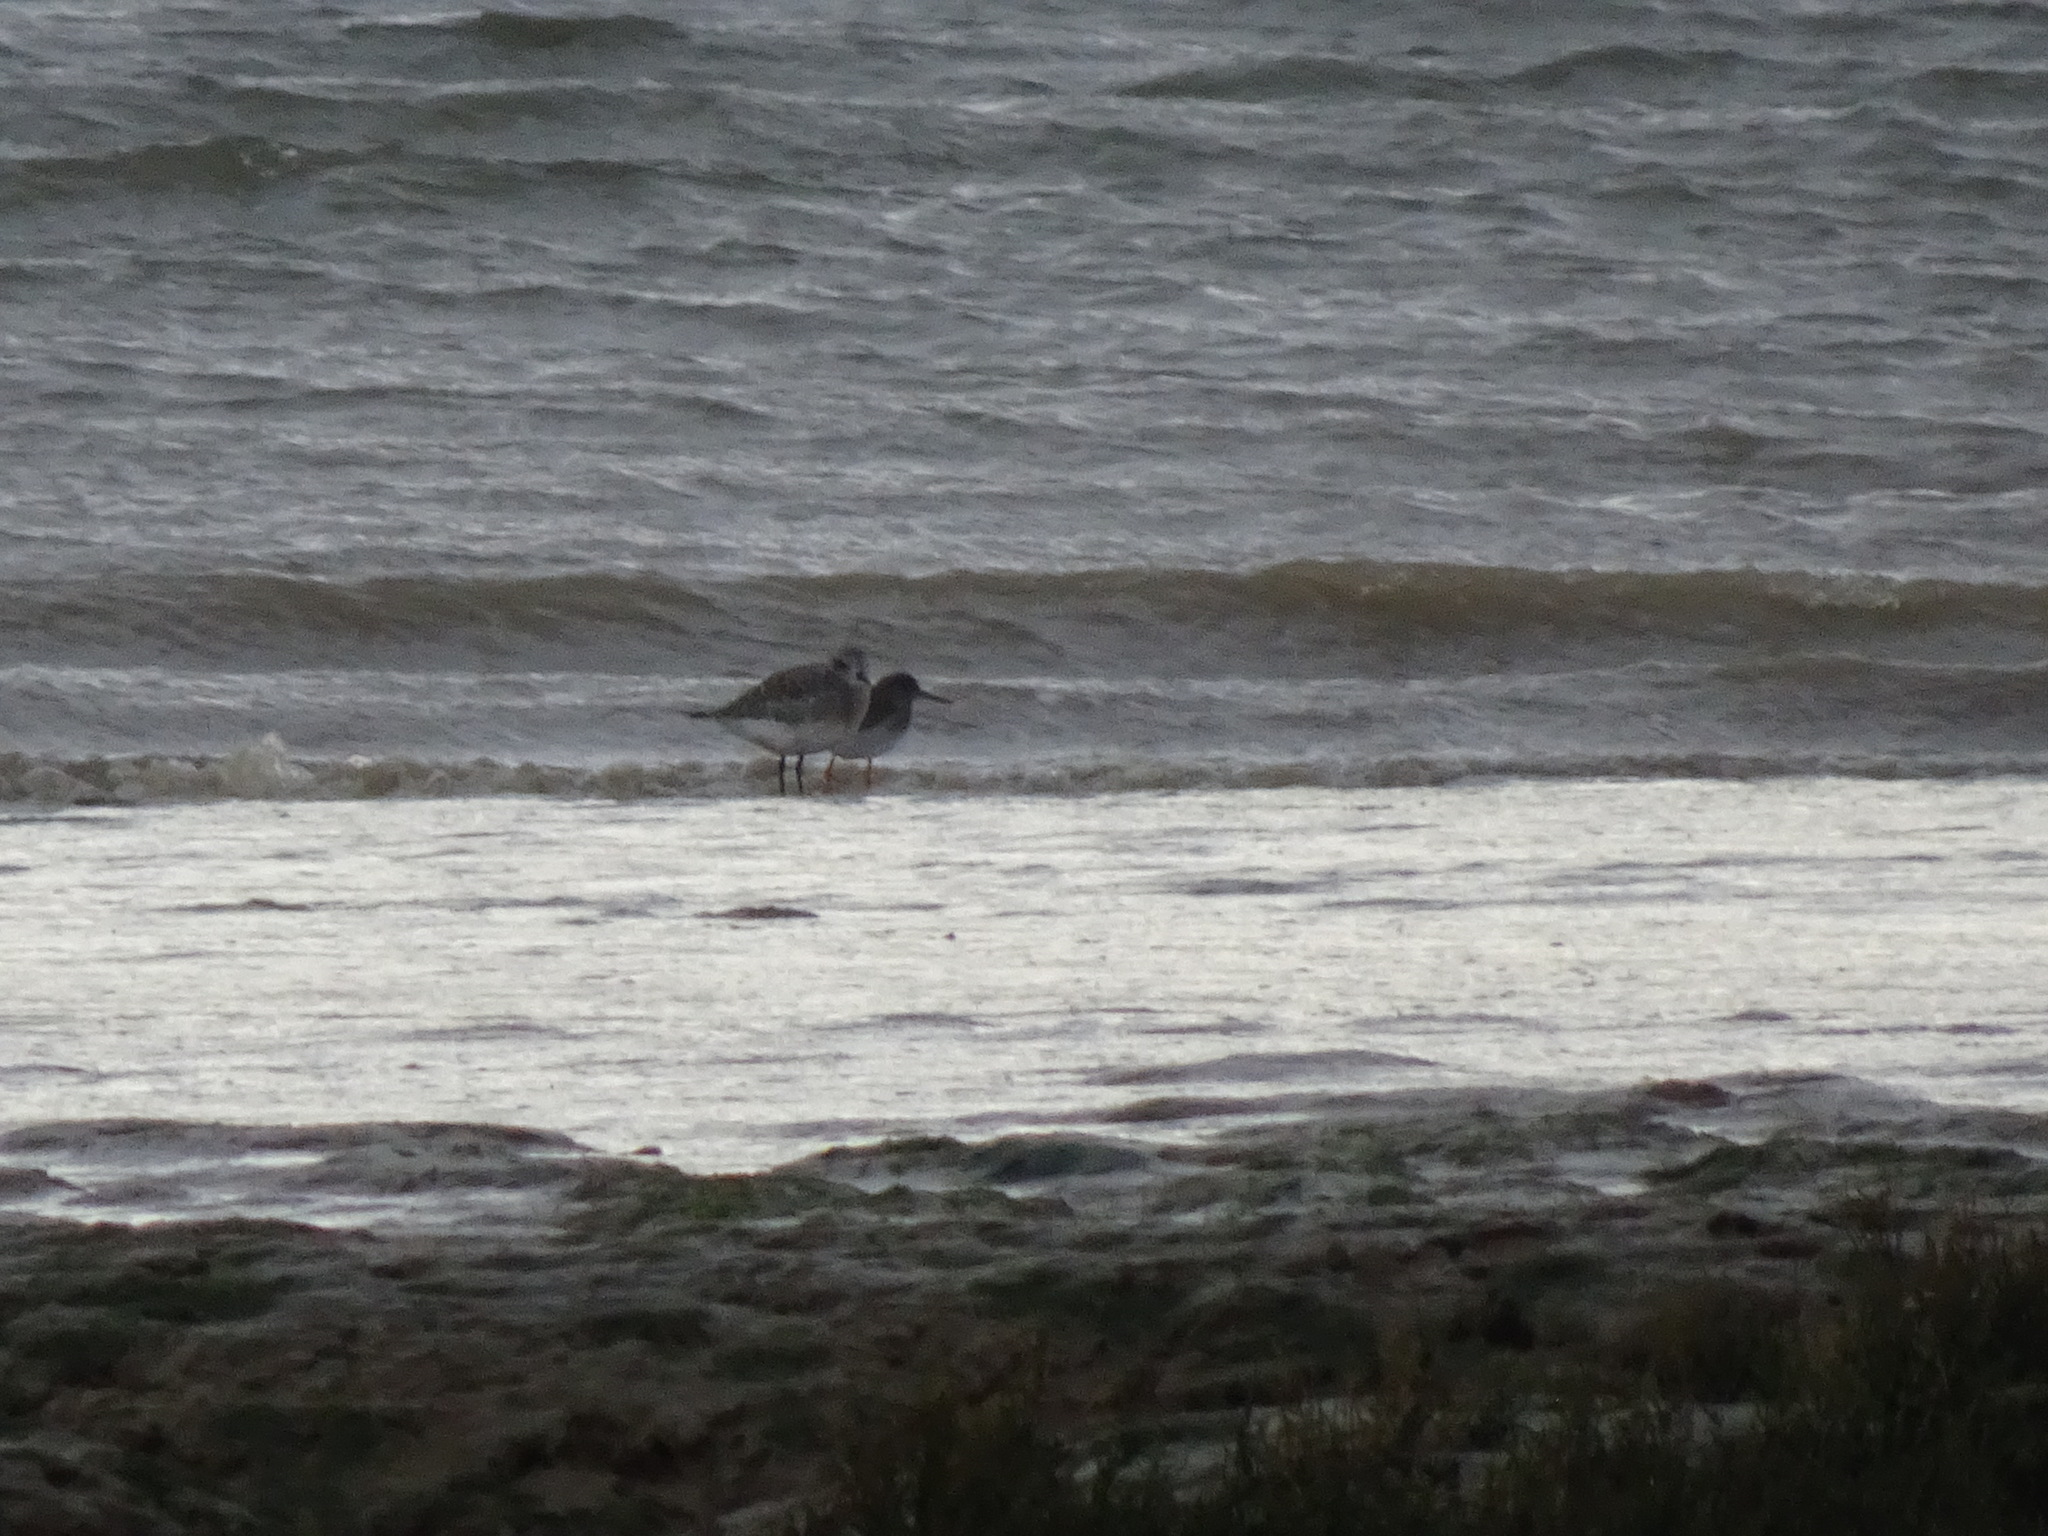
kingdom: Animalia
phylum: Chordata
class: Aves
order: Charadriiformes
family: Charadriidae
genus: Pluvialis
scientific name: Pluvialis squatarola
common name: Grey plover
